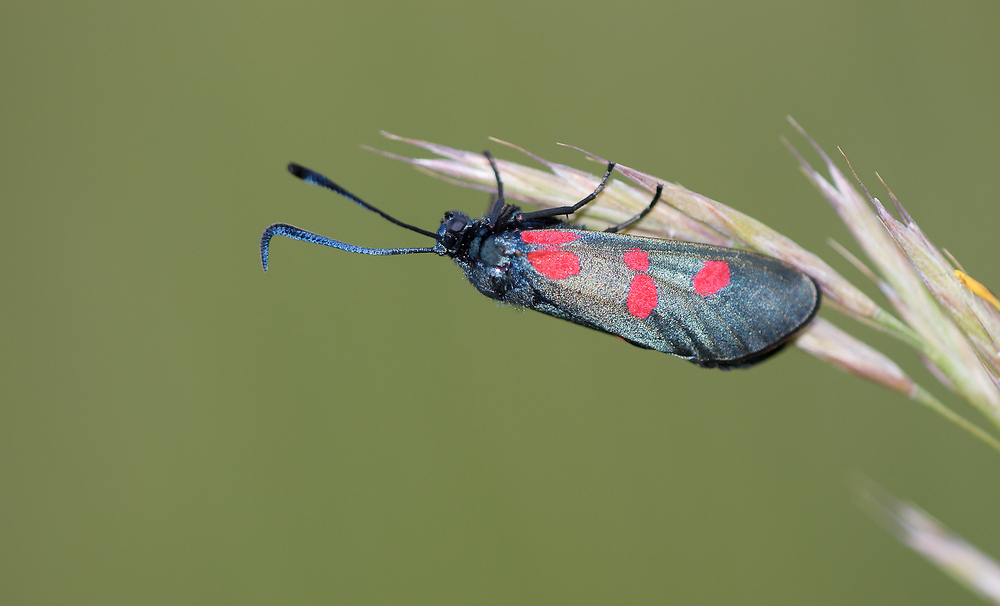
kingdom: Animalia
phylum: Arthropoda
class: Insecta
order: Lepidoptera
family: Zygaenidae
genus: Zygaena
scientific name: Zygaena trifolii
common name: Five-spot burnet
